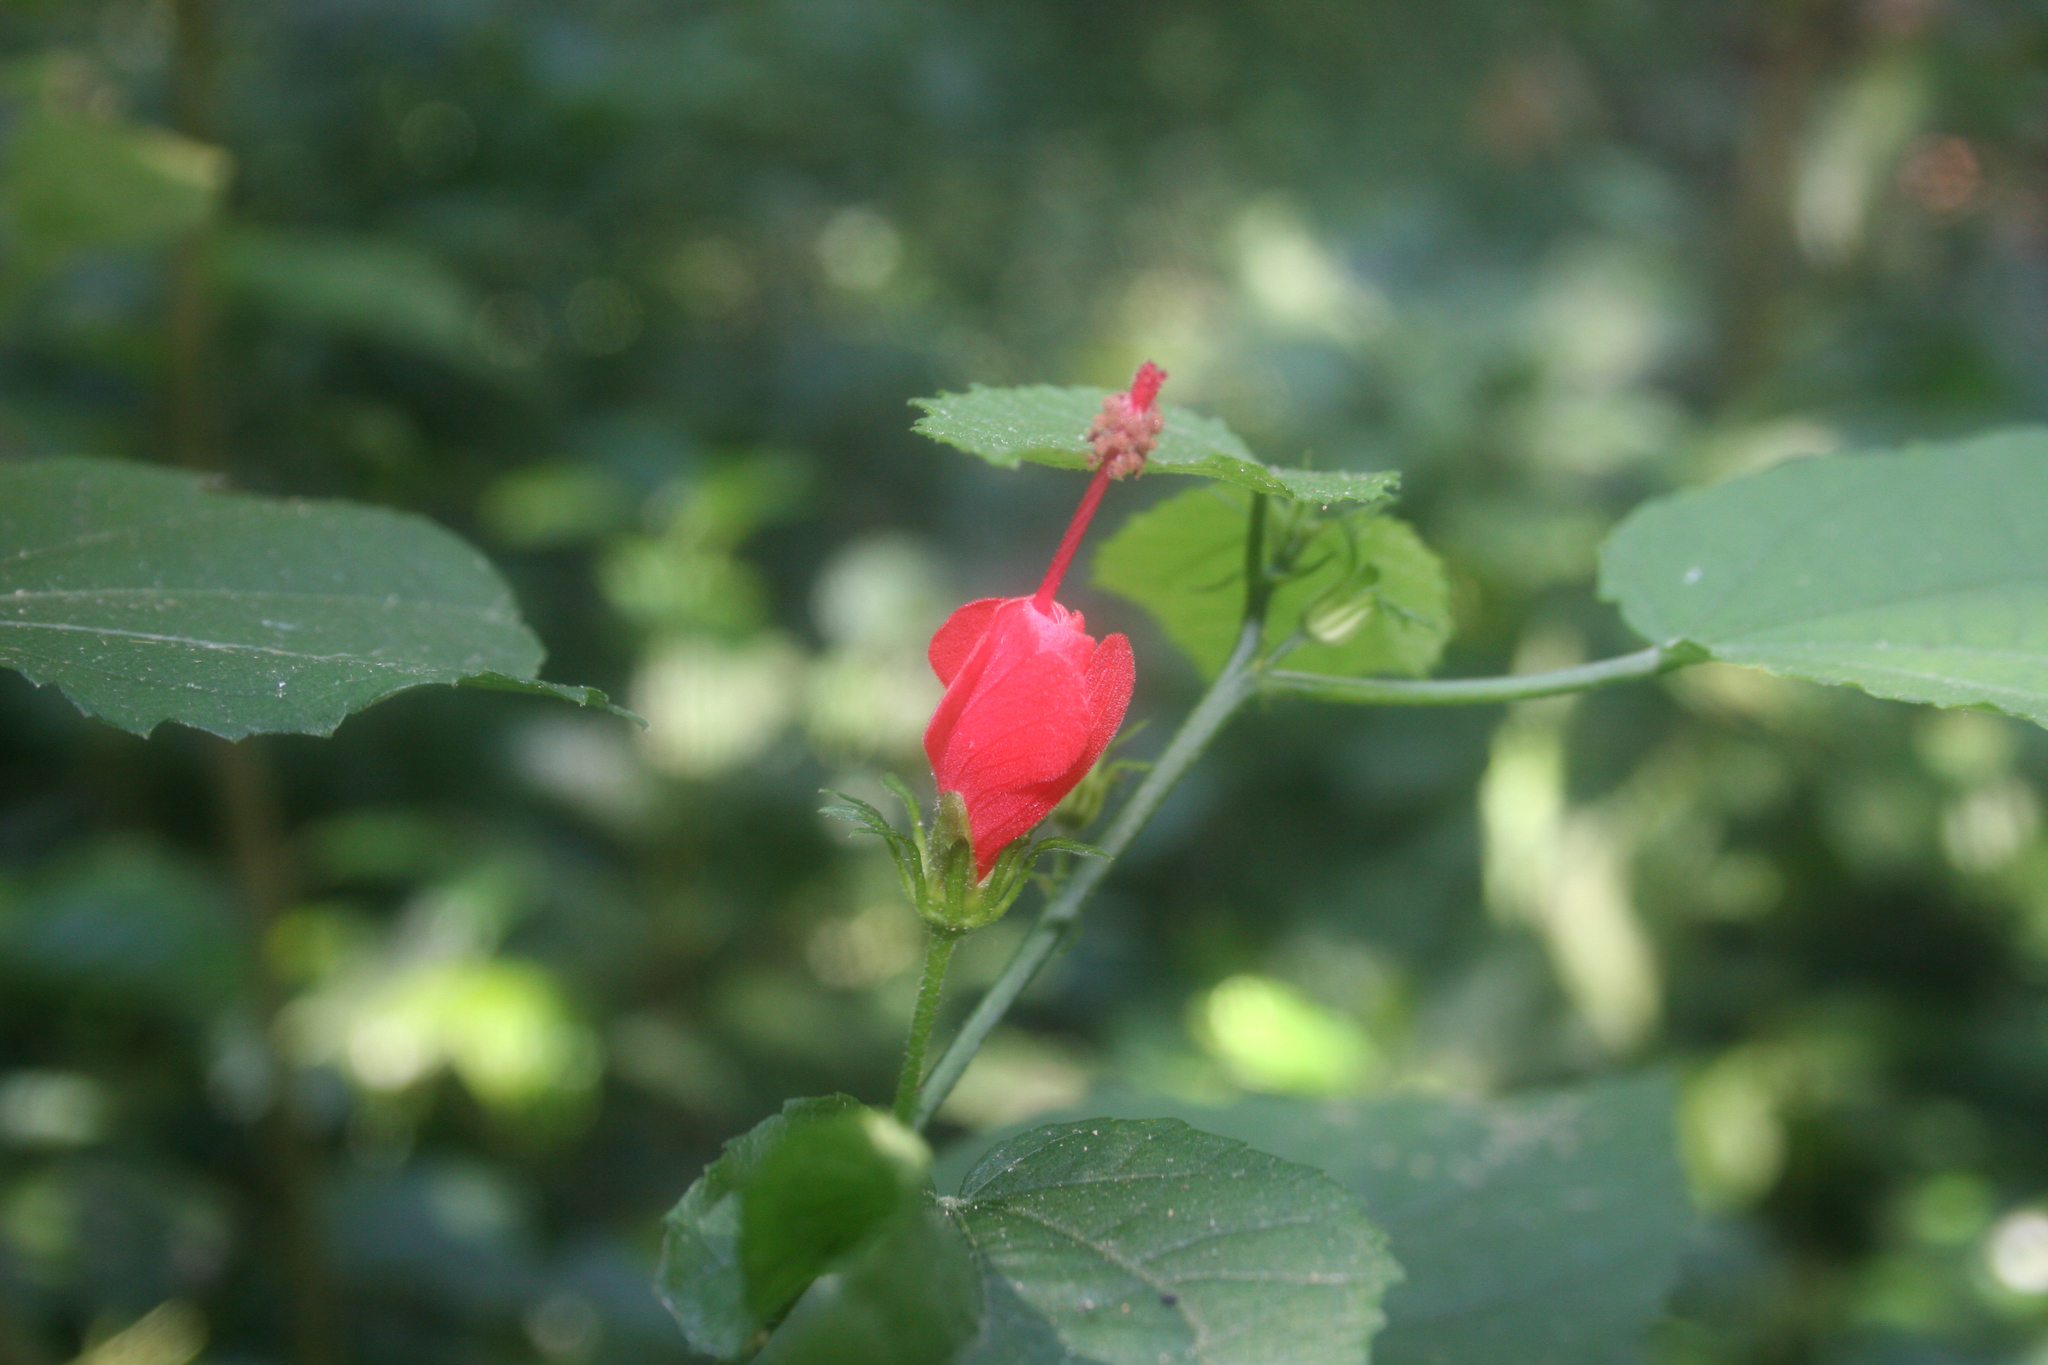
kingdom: Plantae
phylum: Tracheophyta
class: Magnoliopsida
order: Malvales
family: Malvaceae
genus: Malvaviscus
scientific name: Malvaviscus arboreus
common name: Wax mallow
